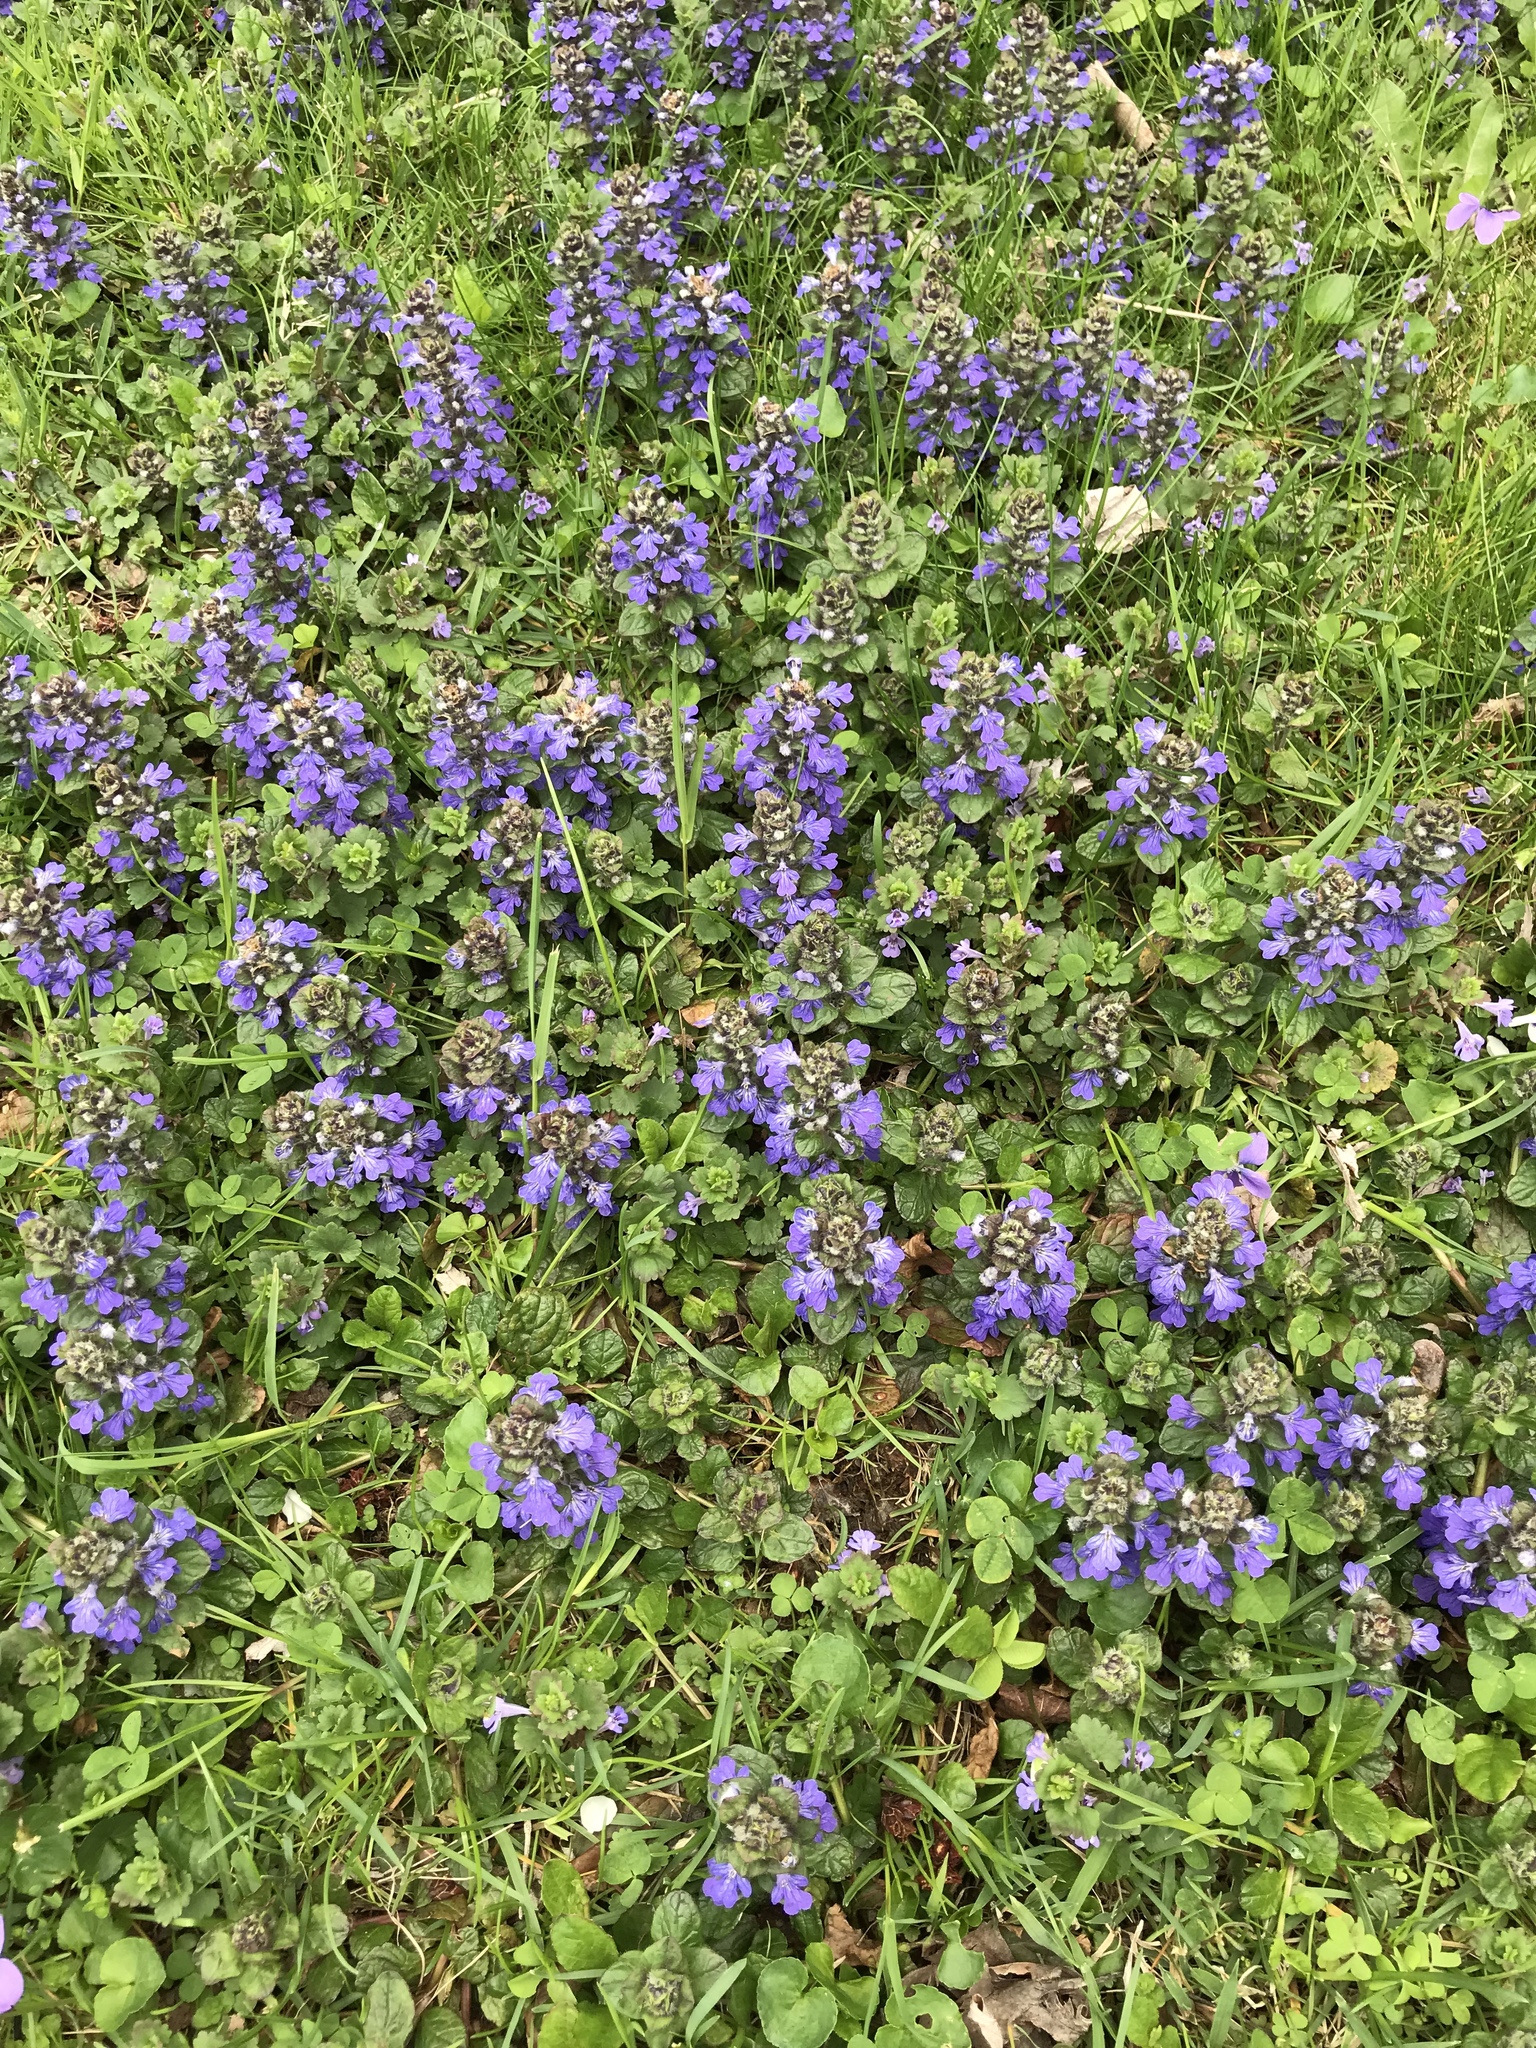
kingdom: Plantae
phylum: Tracheophyta
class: Magnoliopsida
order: Lamiales
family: Lamiaceae
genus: Ajuga
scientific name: Ajuga reptans
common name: Bugle
